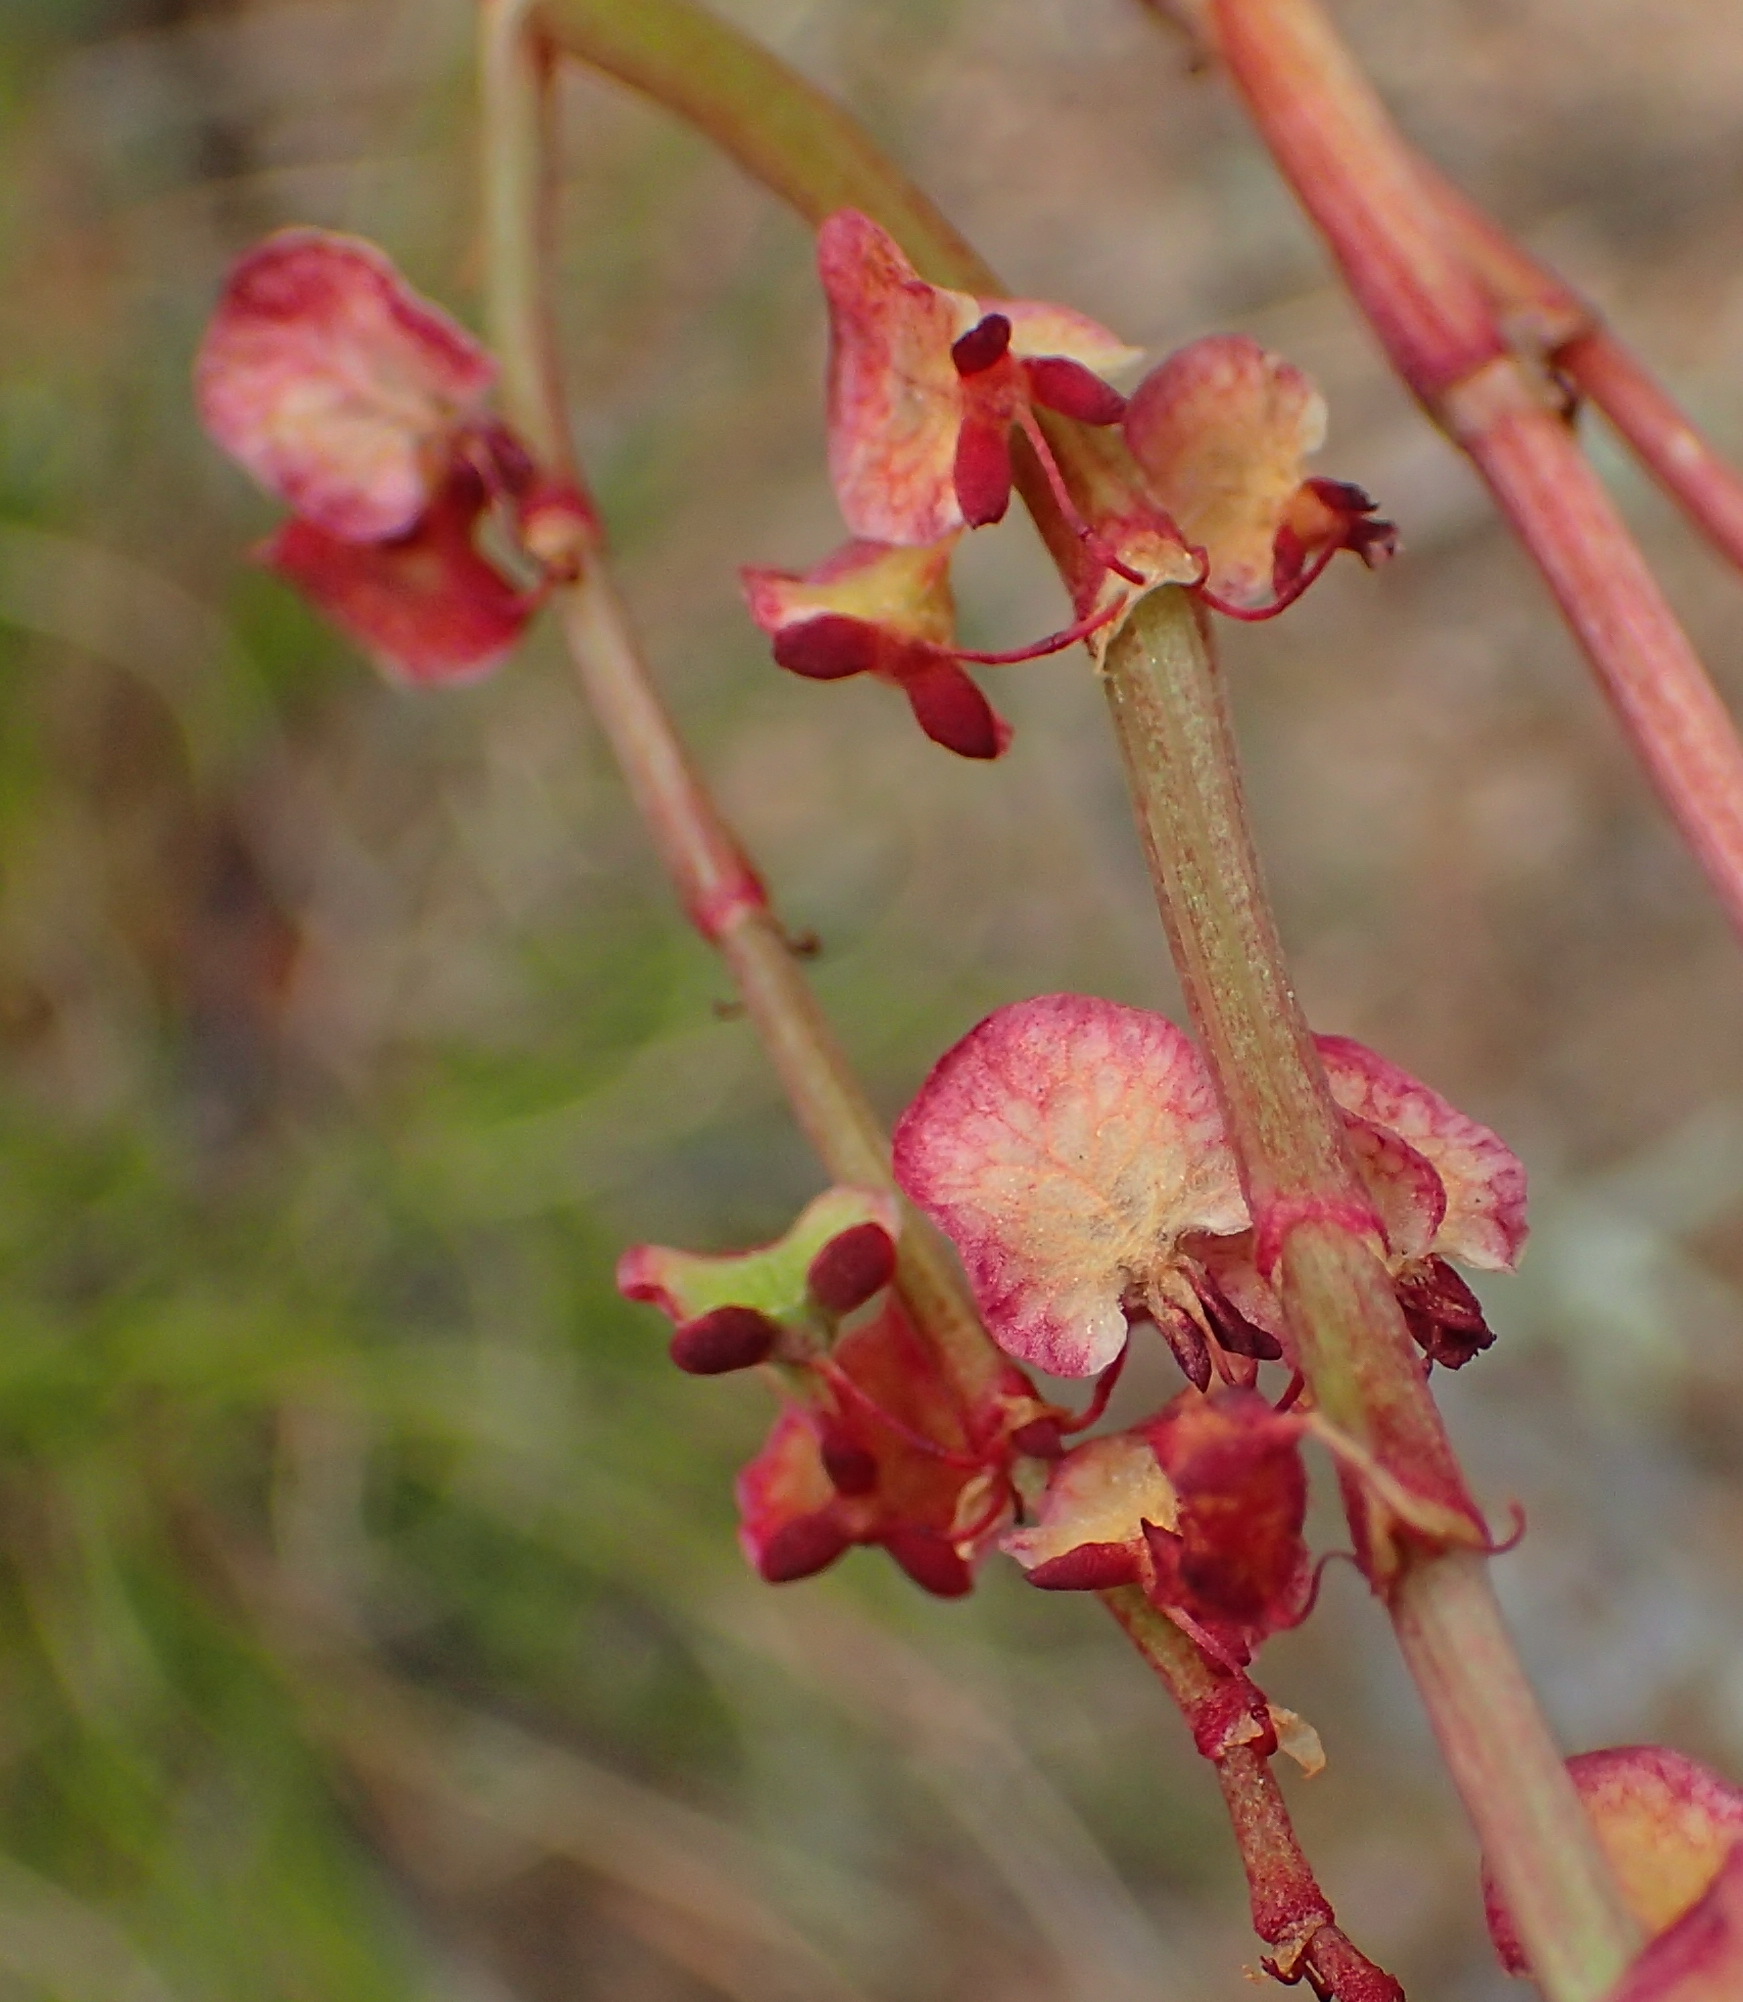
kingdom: Plantae
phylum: Tracheophyta
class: Magnoliopsida
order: Caryophyllales
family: Polygonaceae
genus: Rumex
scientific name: Rumex cordatus
